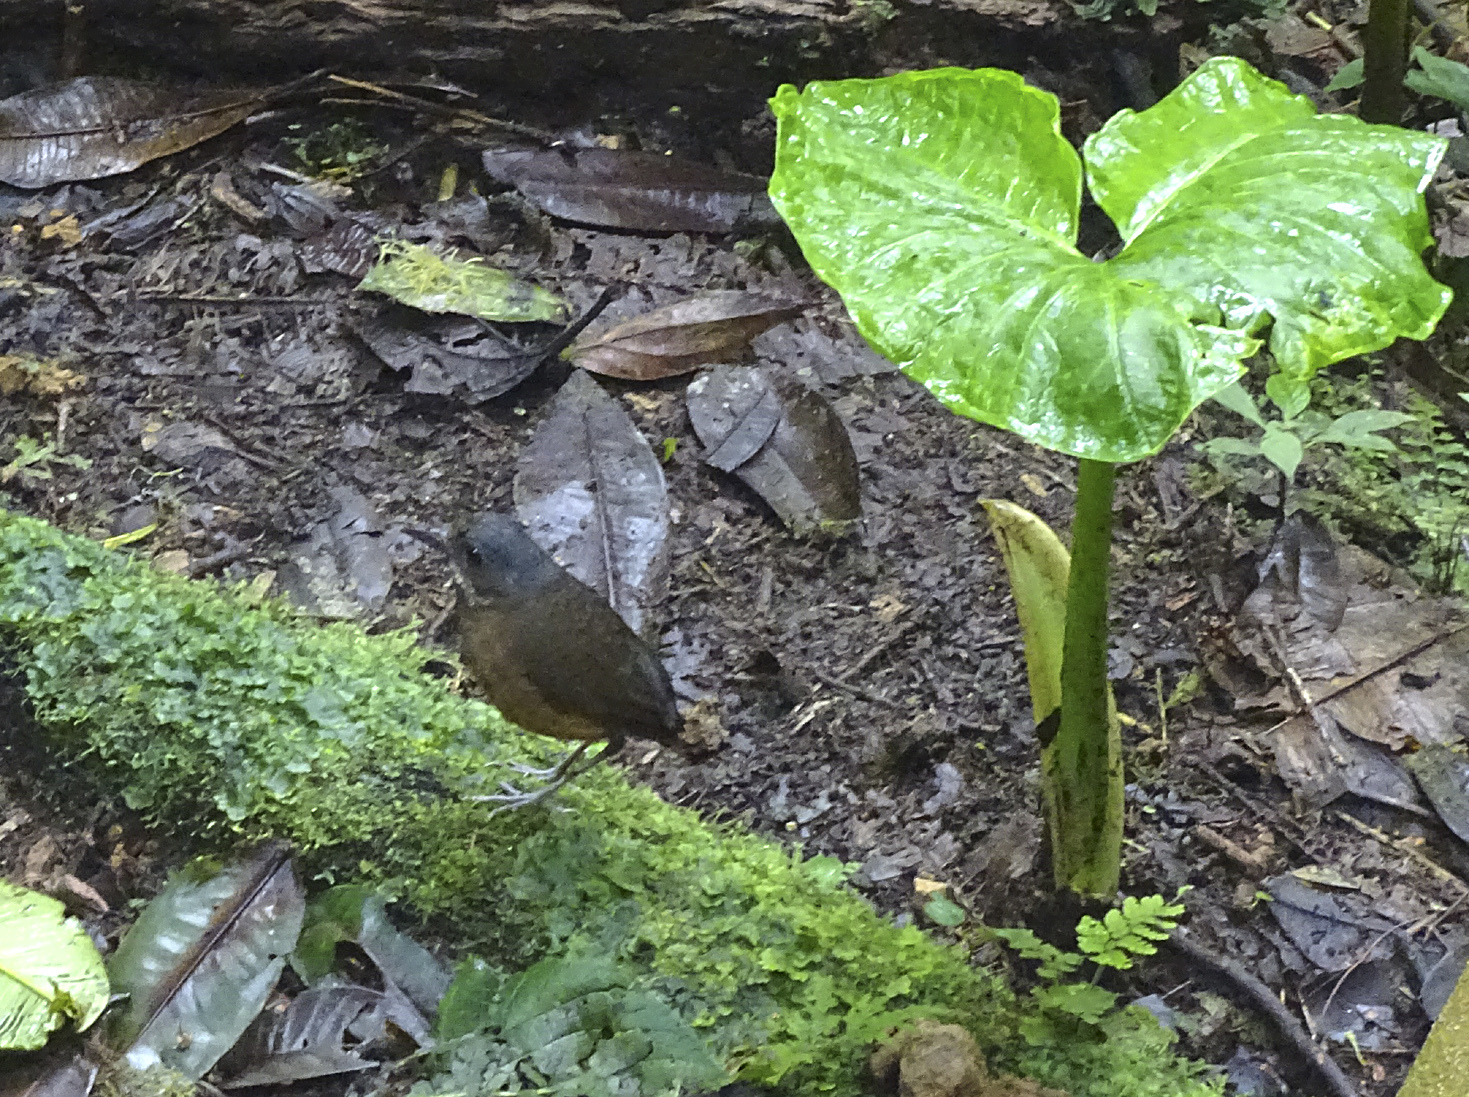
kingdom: Animalia
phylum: Chordata
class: Aves
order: Passeriformes
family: Grallariidae
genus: Grallaria
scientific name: Grallaria alleni
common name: Moustached antpitta
